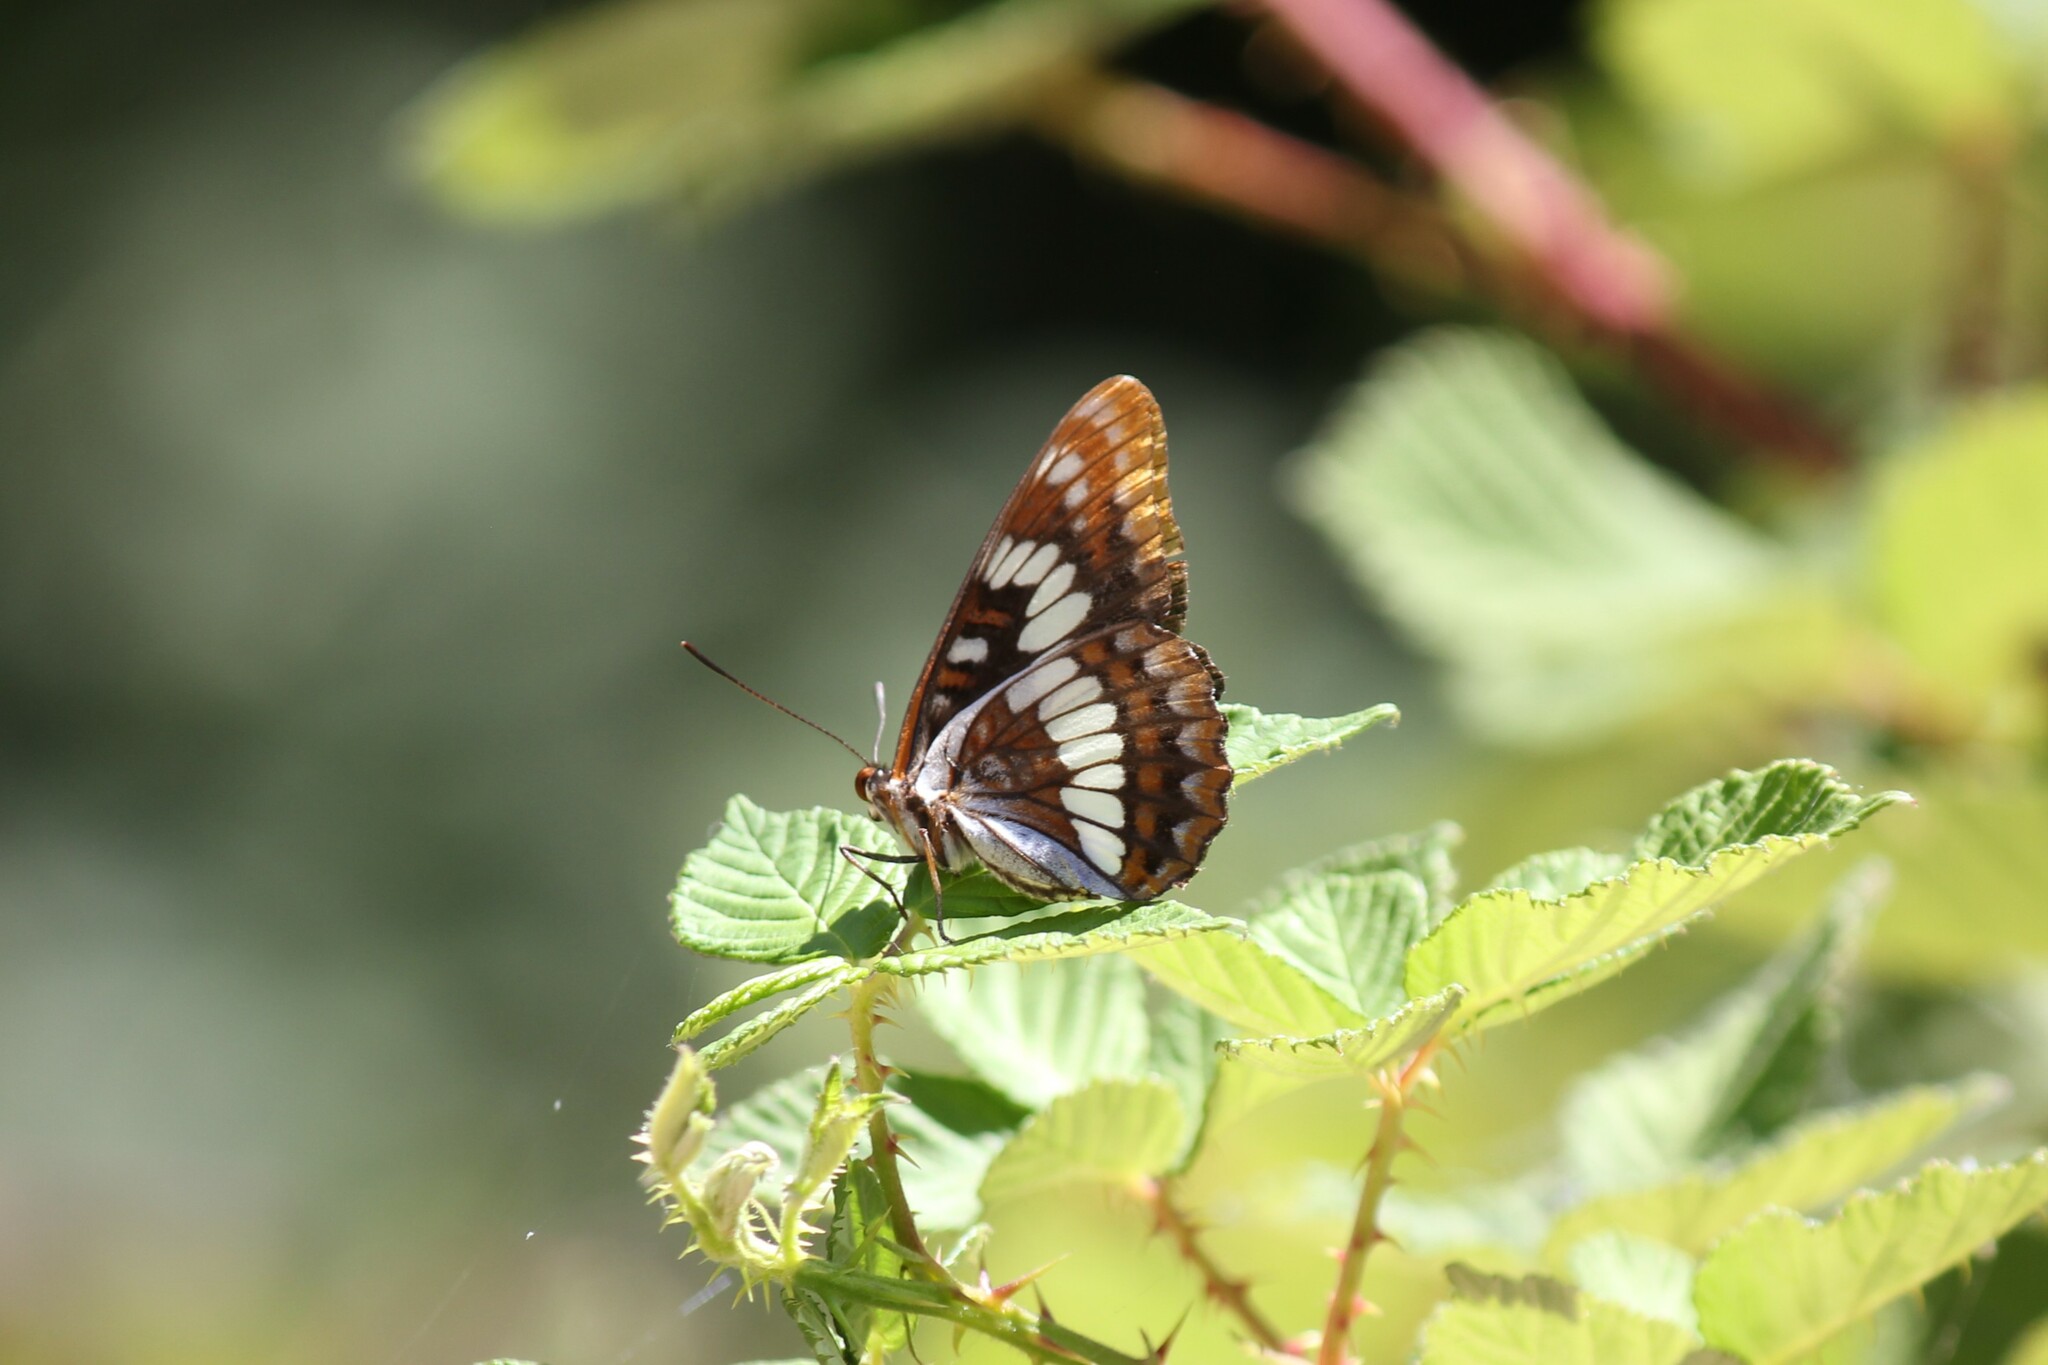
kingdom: Animalia
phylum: Arthropoda
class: Insecta
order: Lepidoptera
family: Nymphalidae
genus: Limenitis
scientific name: Limenitis lorquini
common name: Lorquin's admiral
